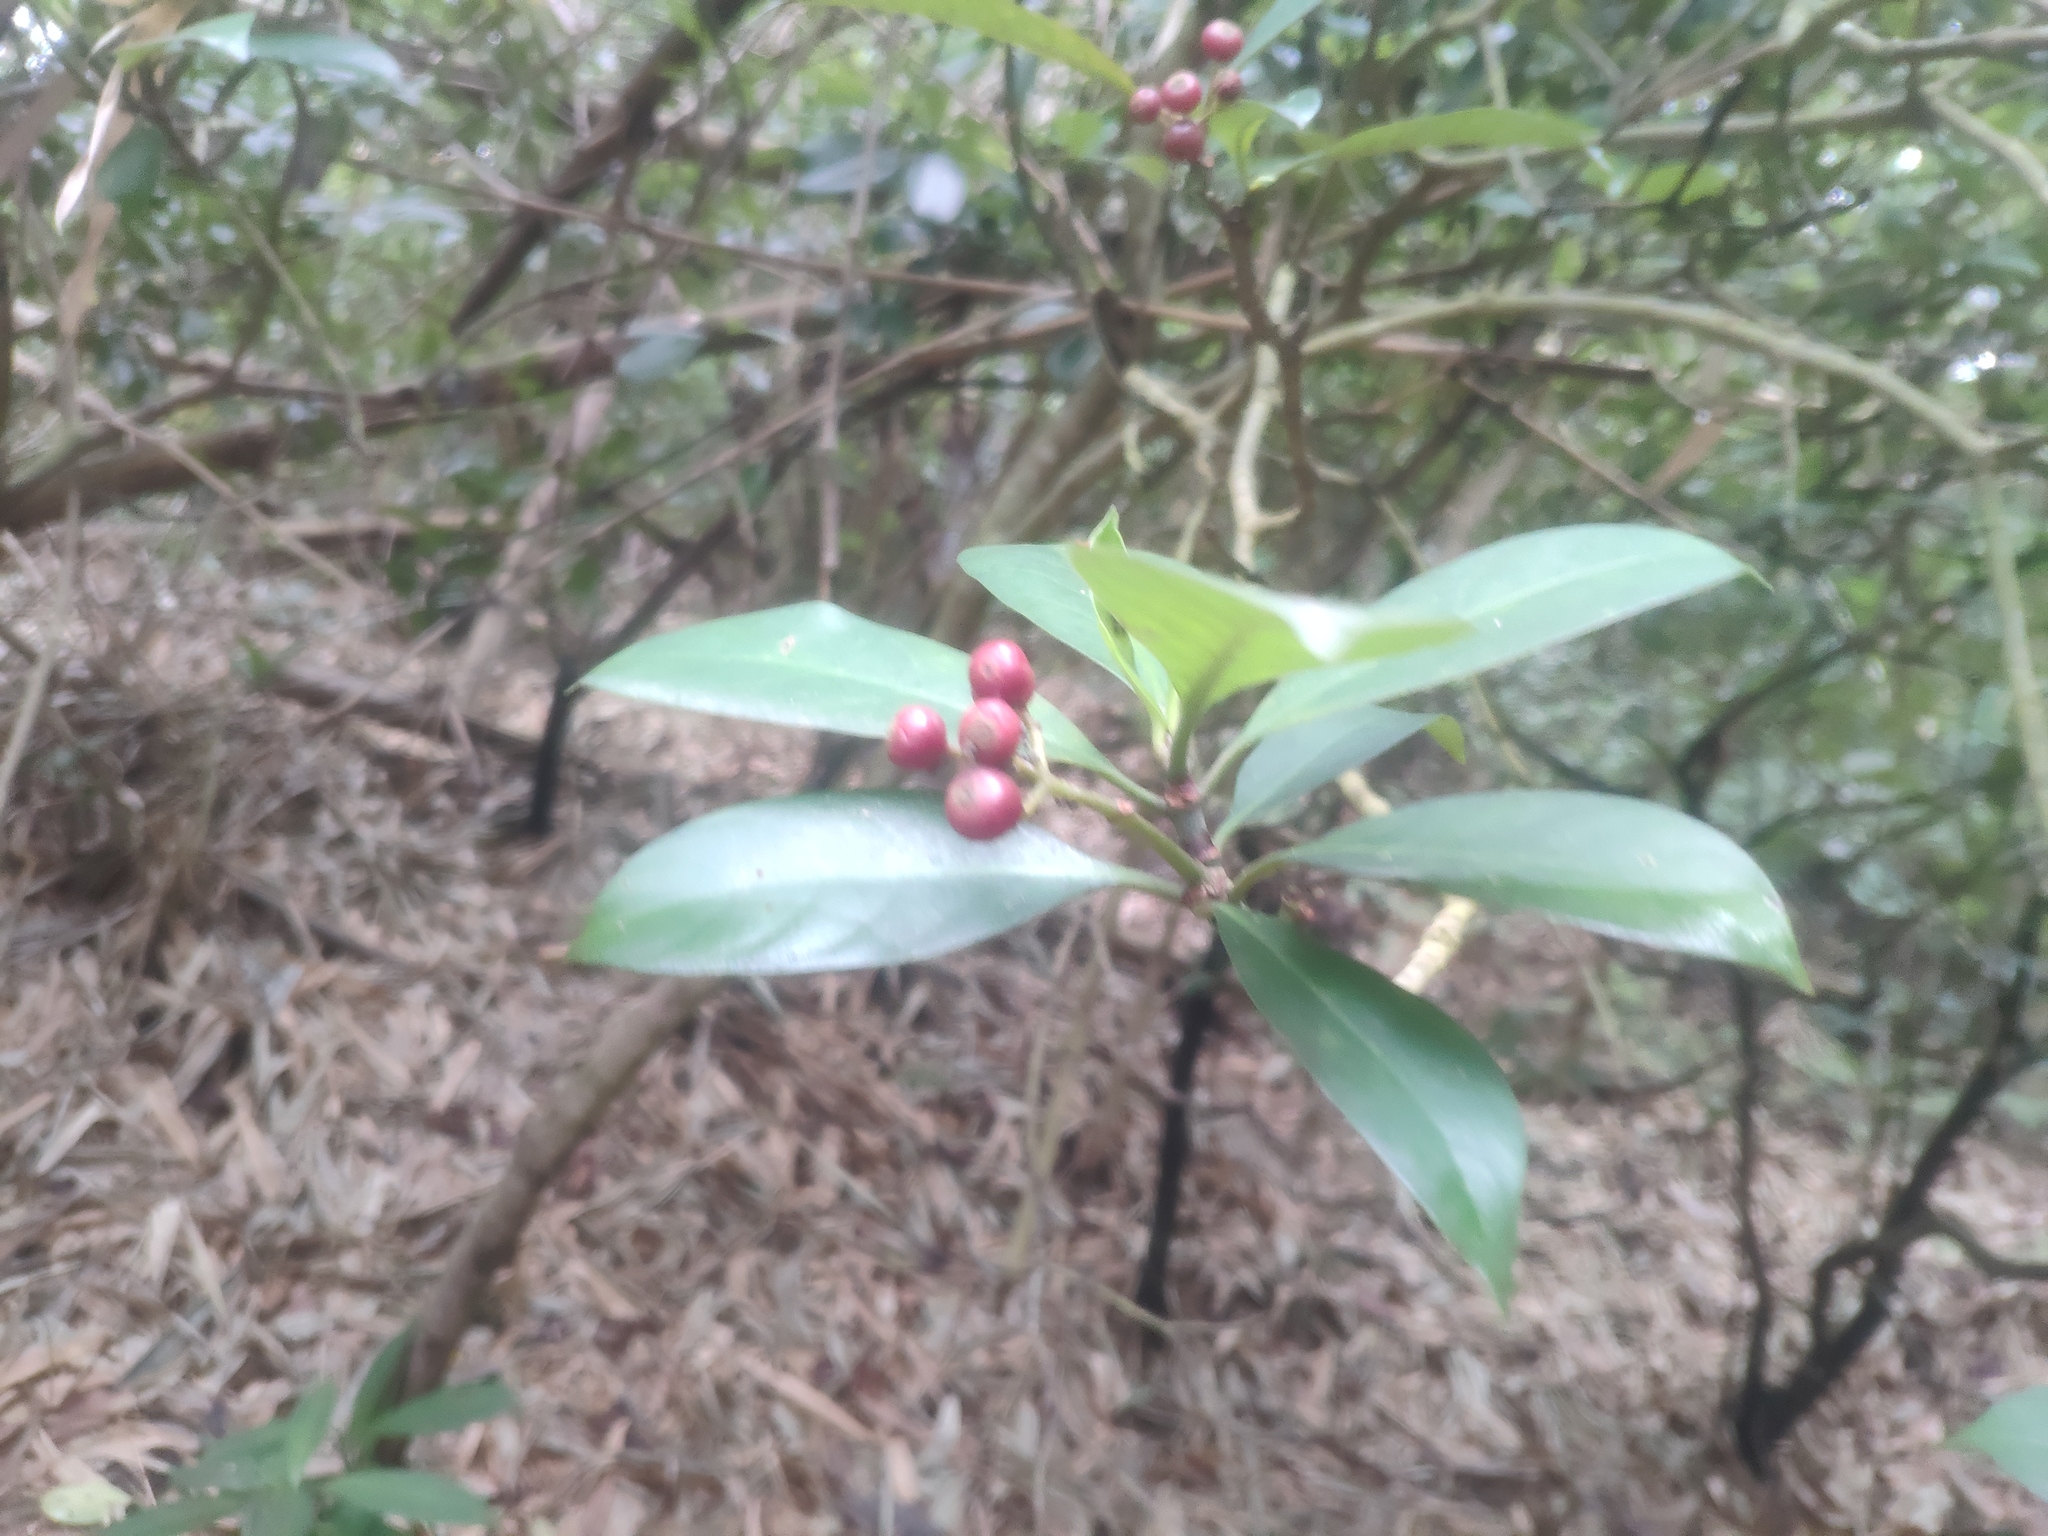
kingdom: Plantae
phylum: Tracheophyta
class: Magnoliopsida
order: Gentianales
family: Rubiaceae
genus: Psychotria
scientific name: Psychotria asiatica
